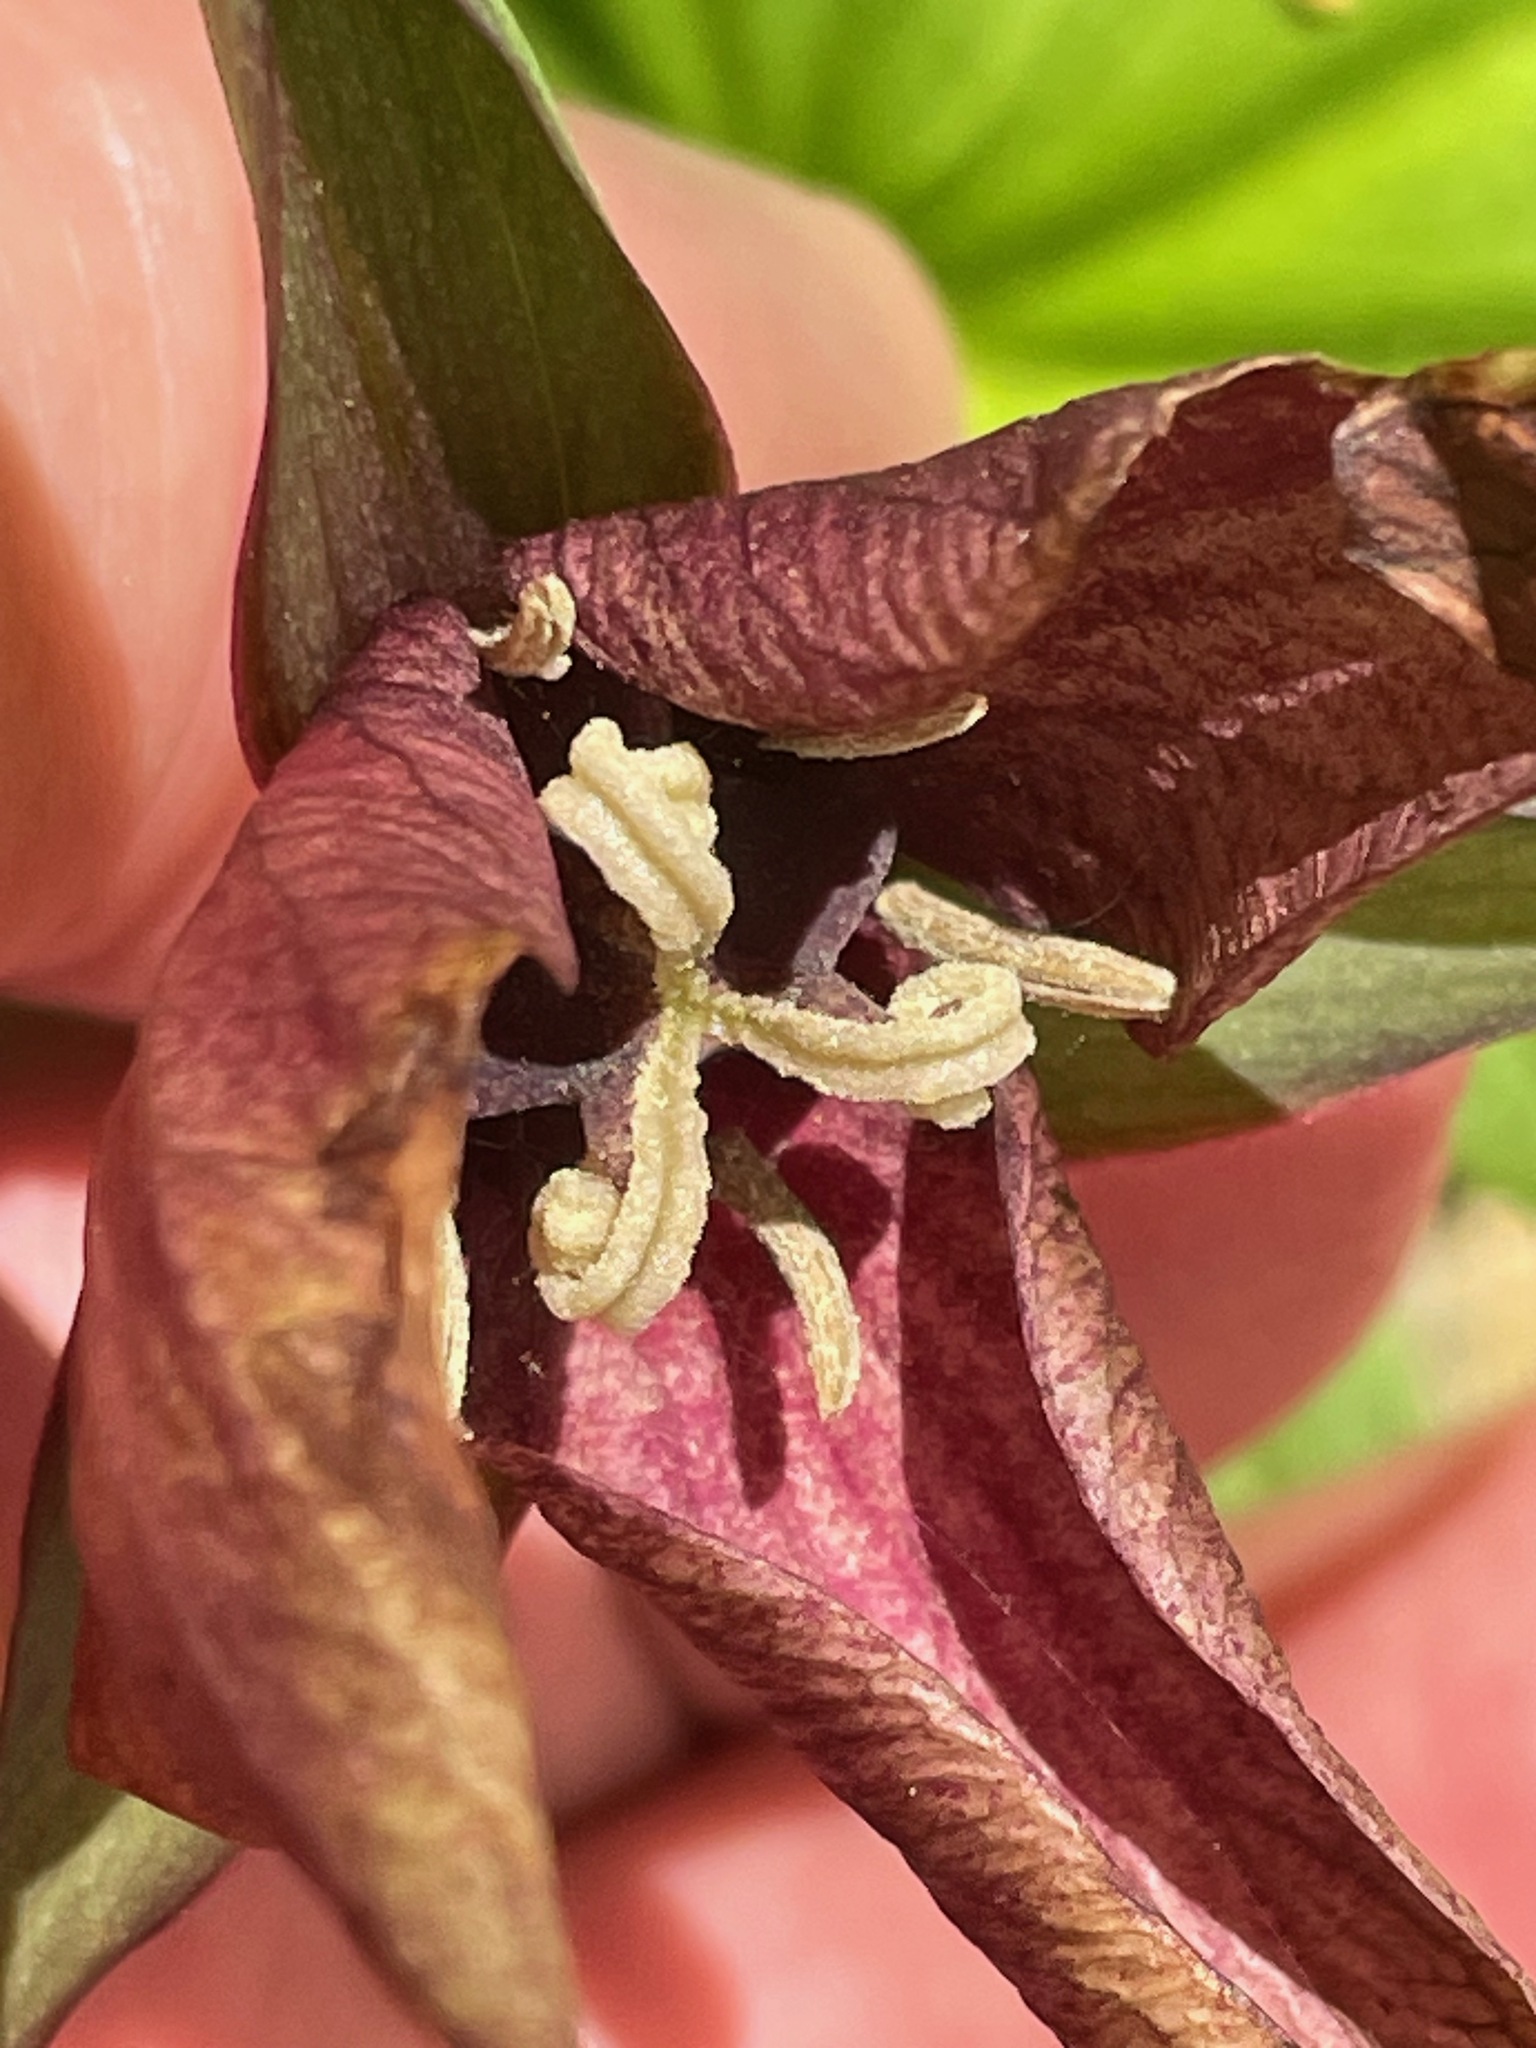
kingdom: Plantae
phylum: Tracheophyta
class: Liliopsida
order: Liliales
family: Melanthiaceae
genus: Trillium
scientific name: Trillium erectum
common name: Purple trillium
